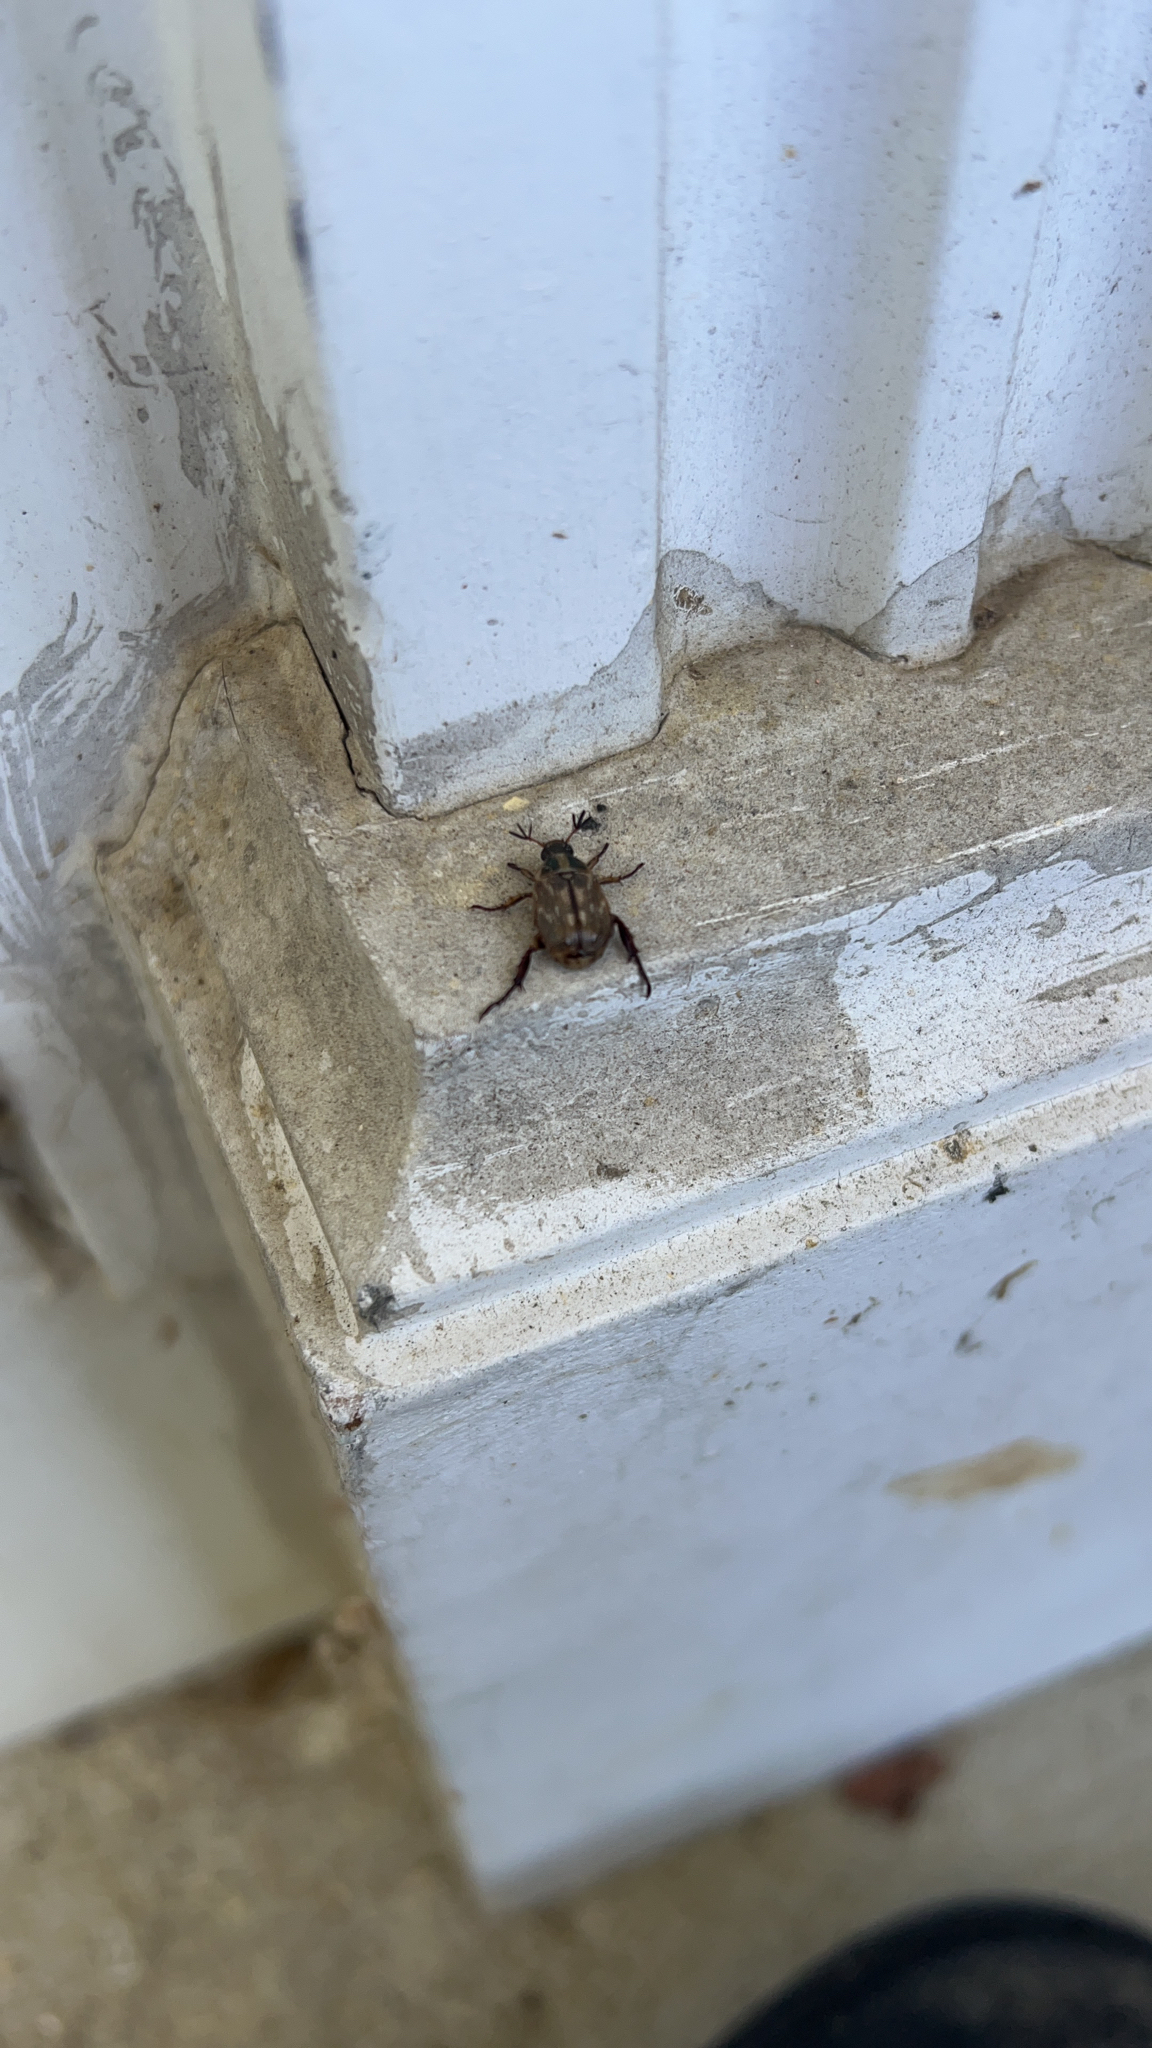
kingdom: Animalia
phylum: Arthropoda
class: Insecta
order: Coleoptera
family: Scarabaeidae
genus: Exomala
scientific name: Exomala orientalis
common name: Oriental beetle
